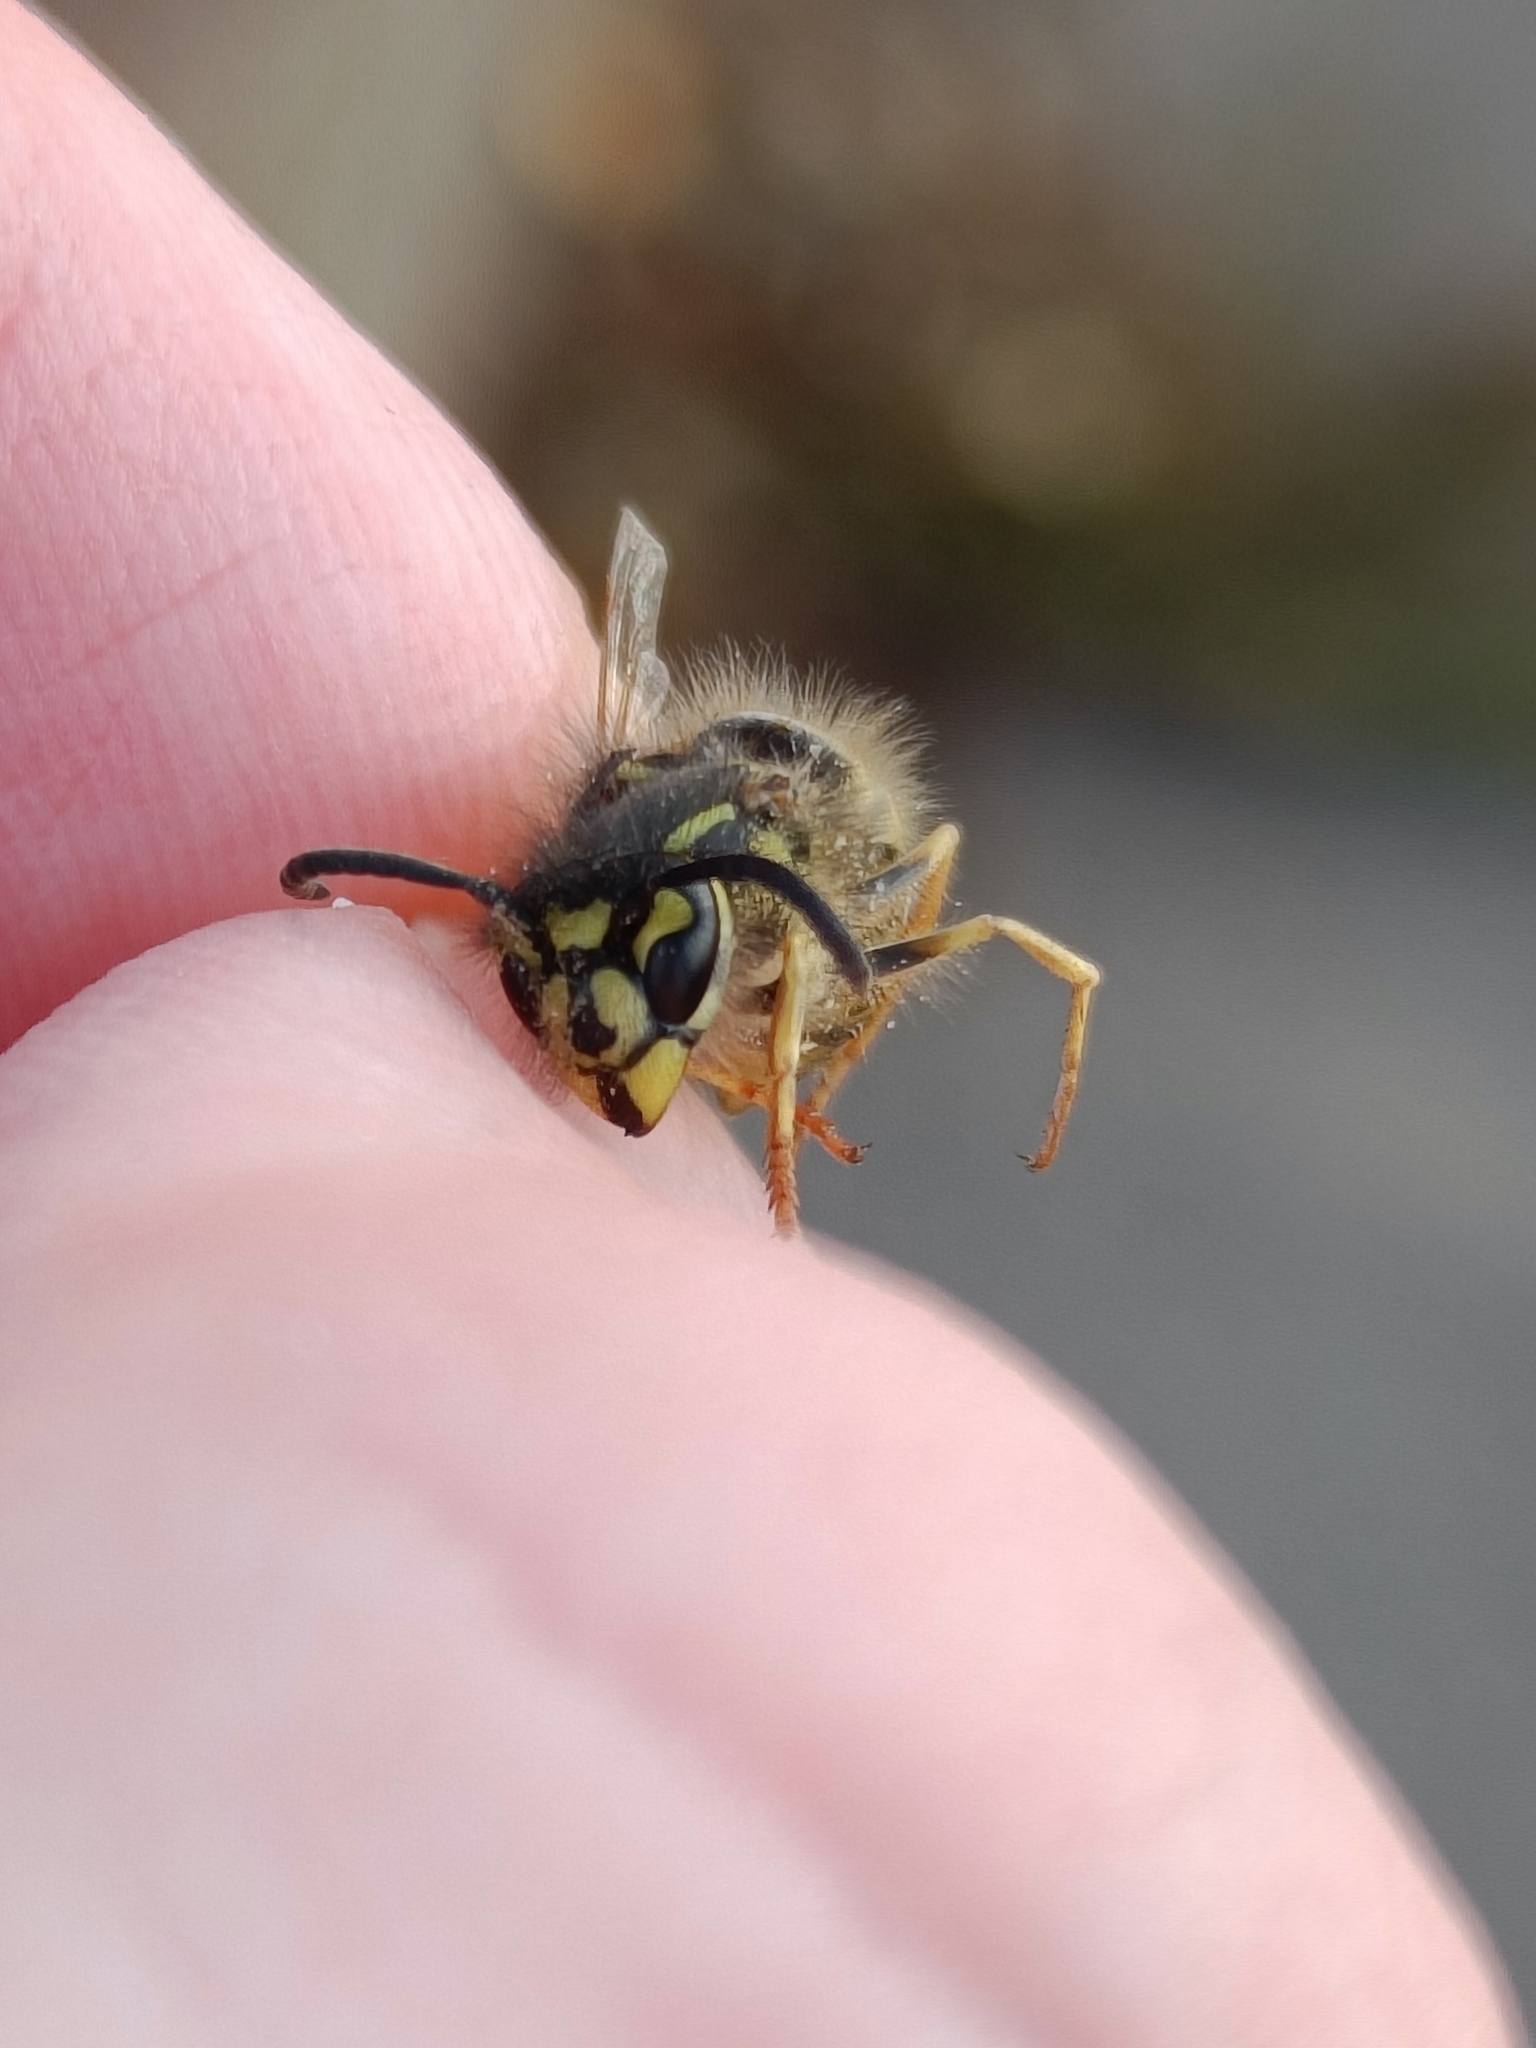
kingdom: Animalia
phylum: Arthropoda
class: Insecta
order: Hymenoptera
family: Vespidae
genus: Vespula
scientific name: Vespula vulgaris
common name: Common wasp
